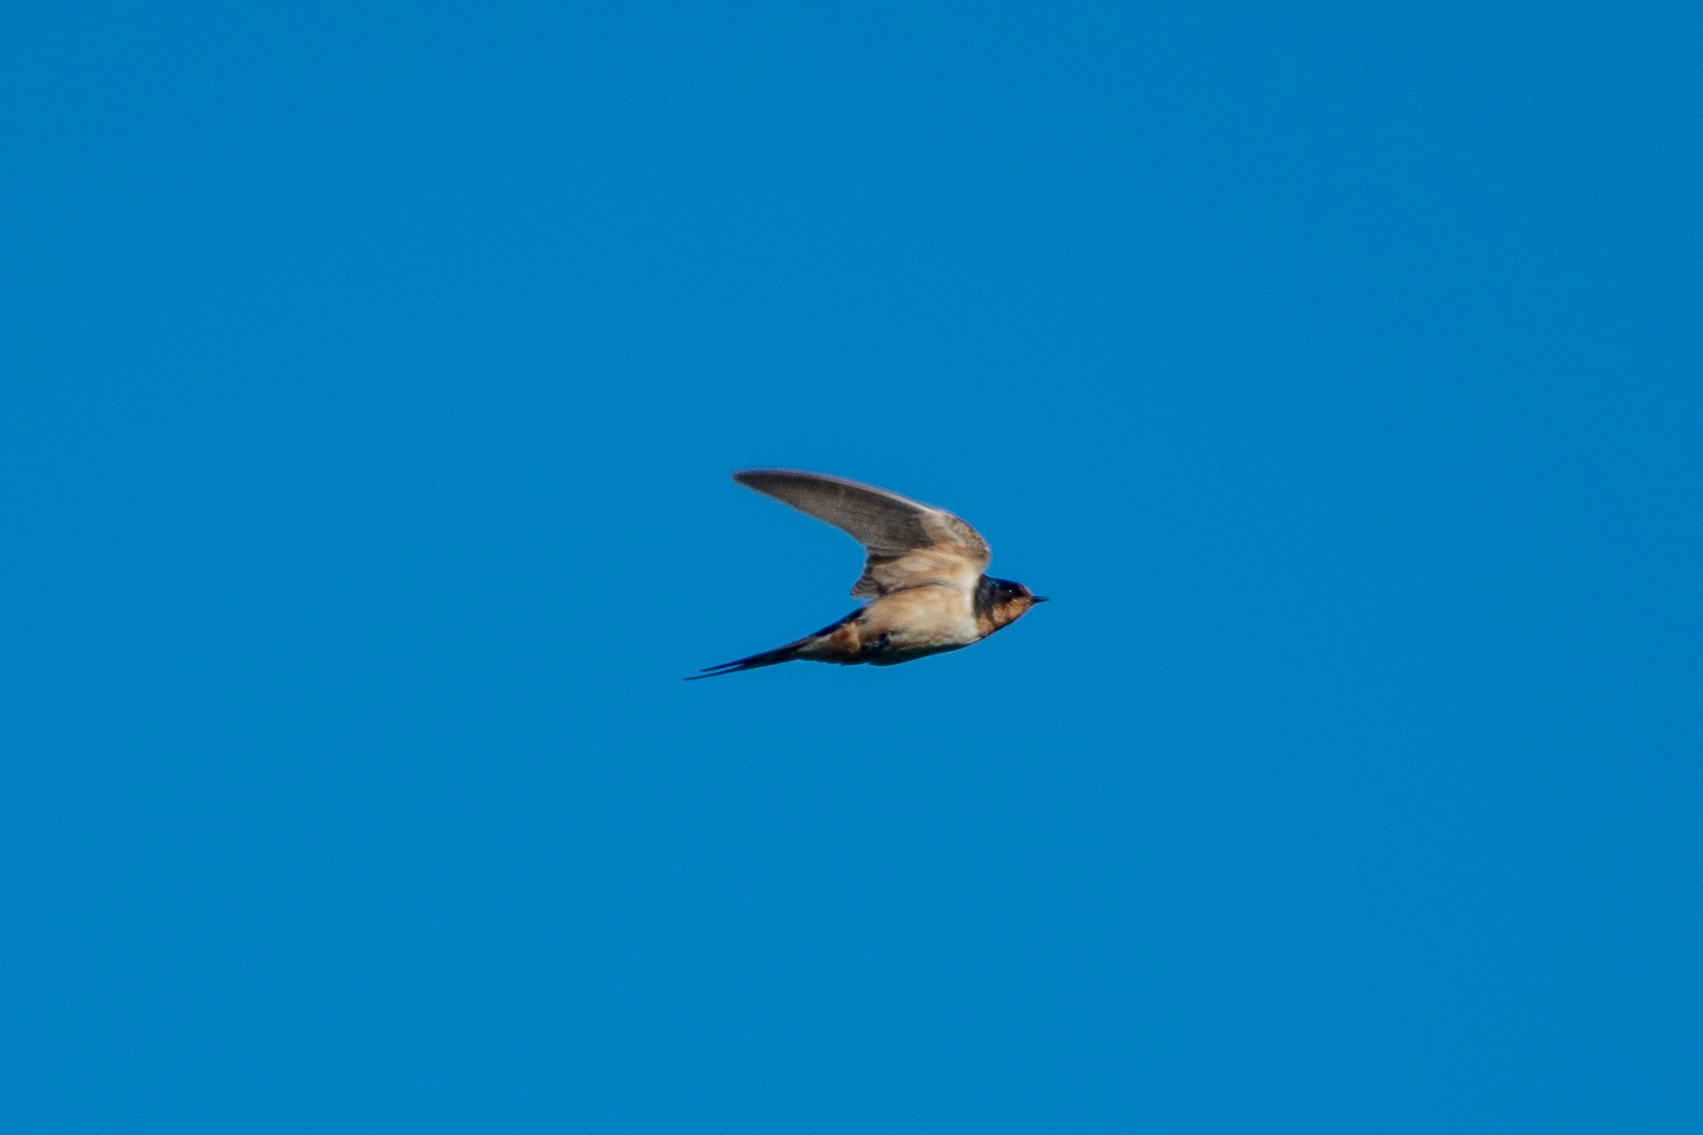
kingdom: Animalia
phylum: Chordata
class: Aves
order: Passeriformes
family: Hirundinidae
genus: Hirundo
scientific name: Hirundo rustica
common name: Barn swallow
